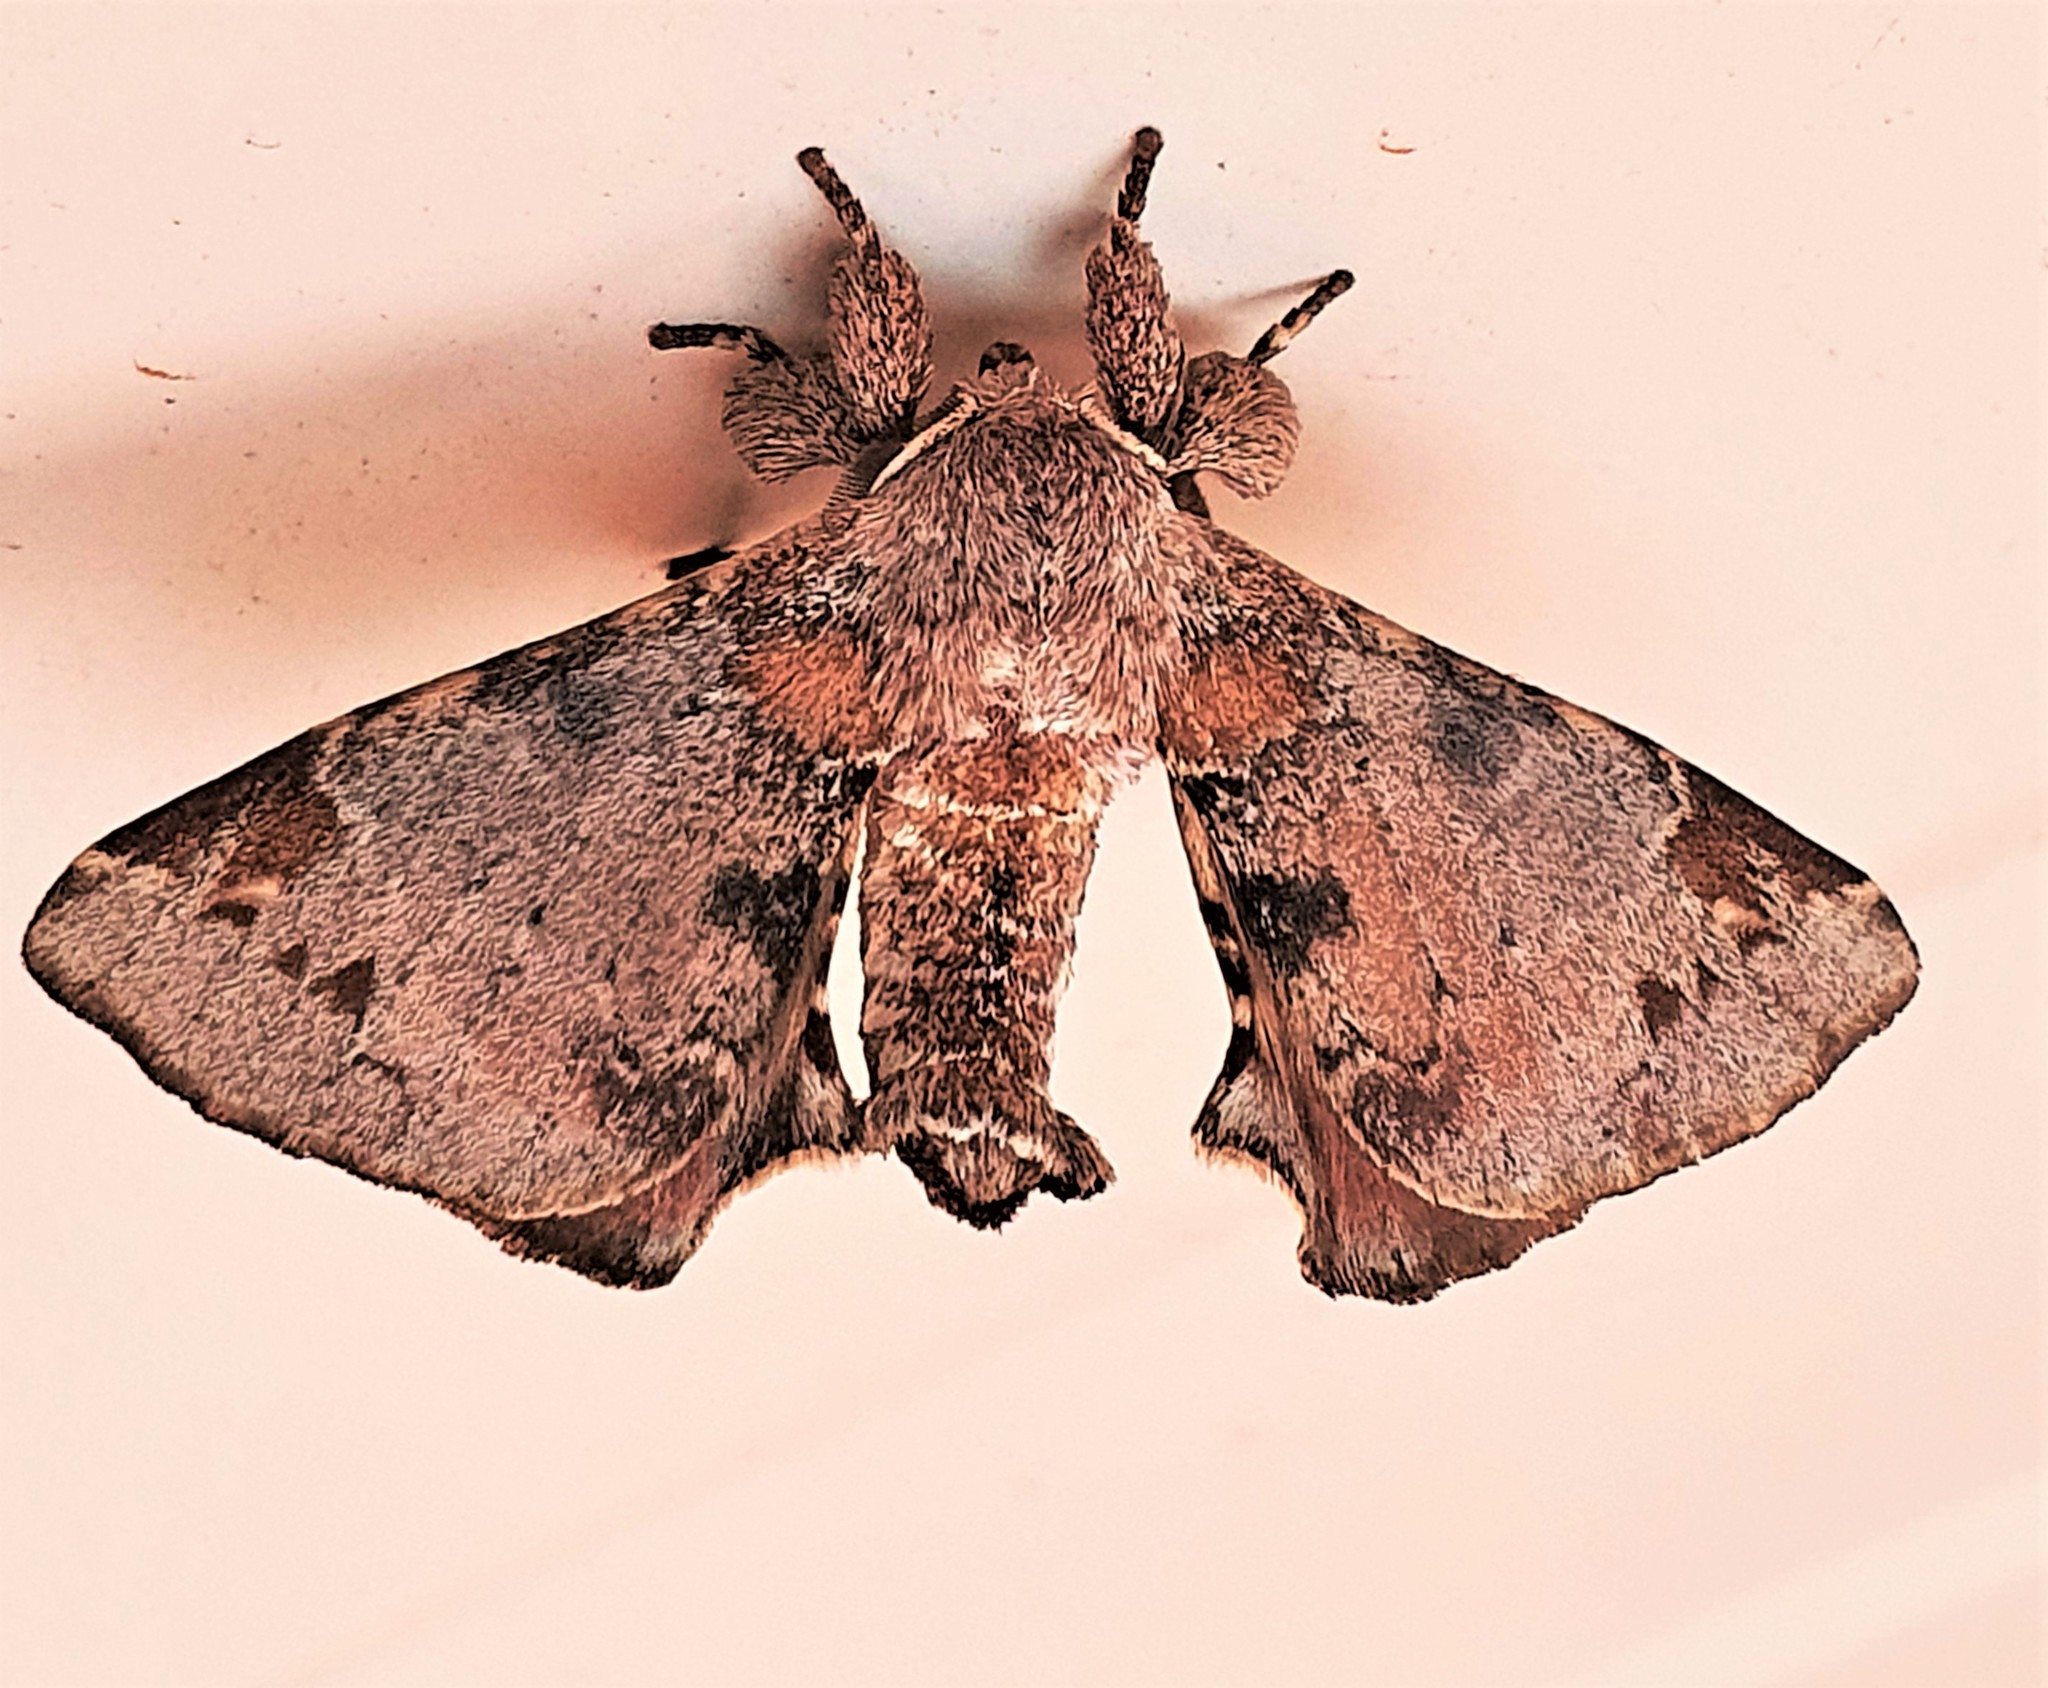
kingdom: Animalia
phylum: Arthropoda
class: Insecta
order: Lepidoptera
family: Apatelodidae
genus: Hygrochroa
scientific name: Hygrochroa nina
